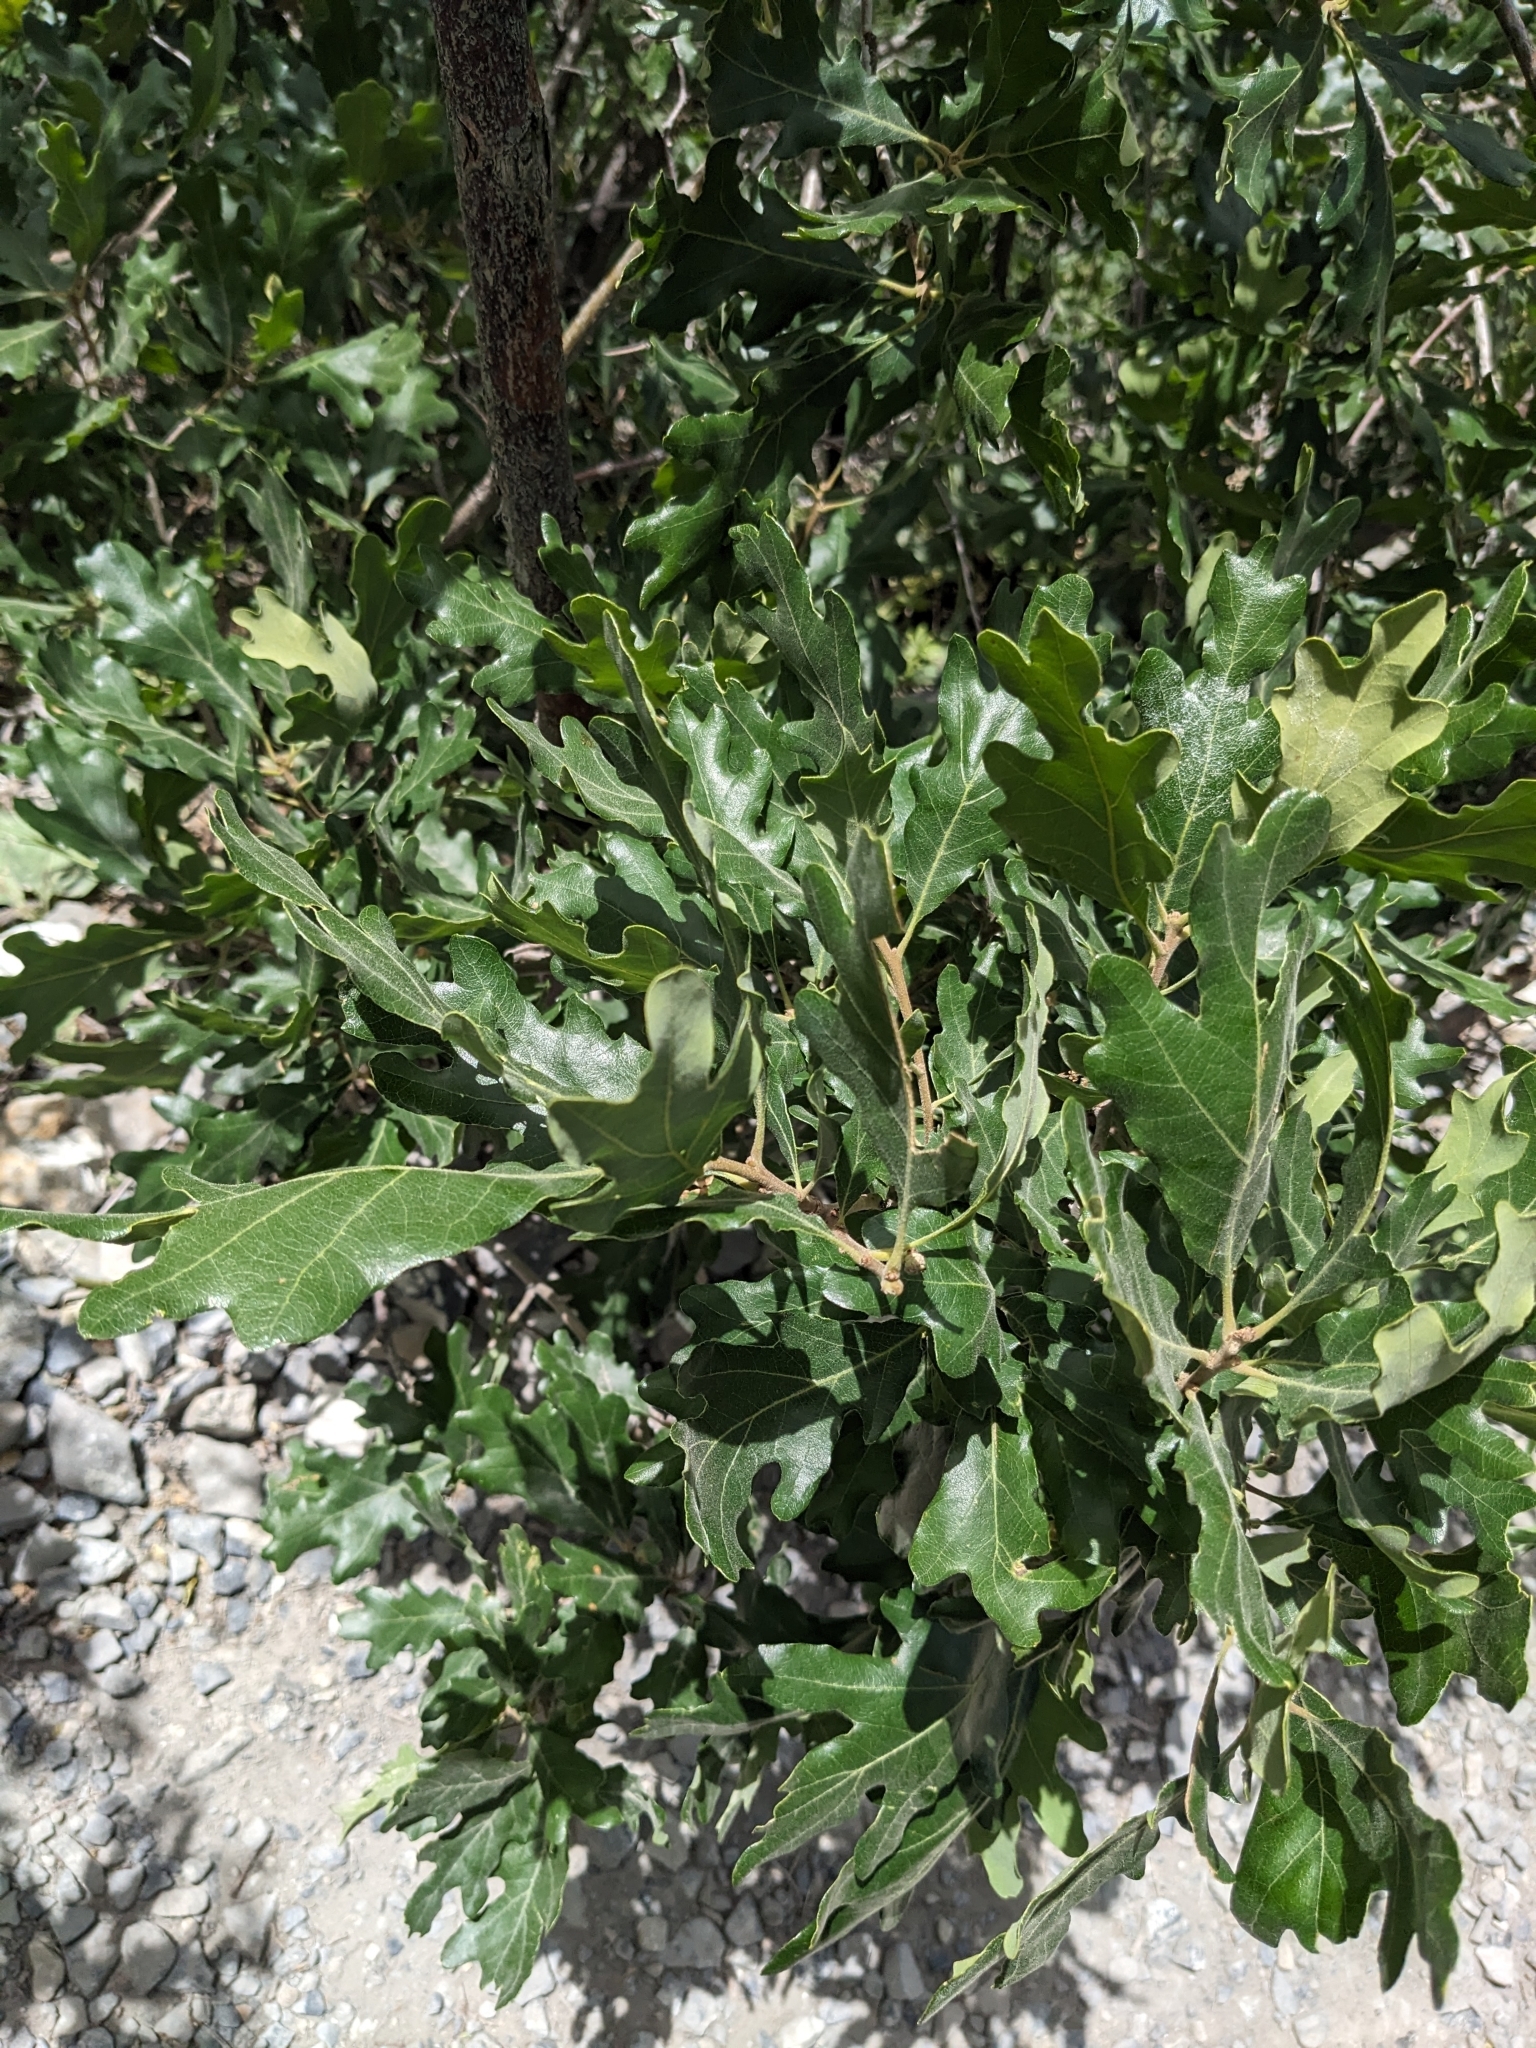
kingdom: Plantae
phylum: Tracheophyta
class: Magnoliopsida
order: Fagales
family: Fagaceae
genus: Quercus
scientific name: Quercus gambelii
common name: Gambel oak
